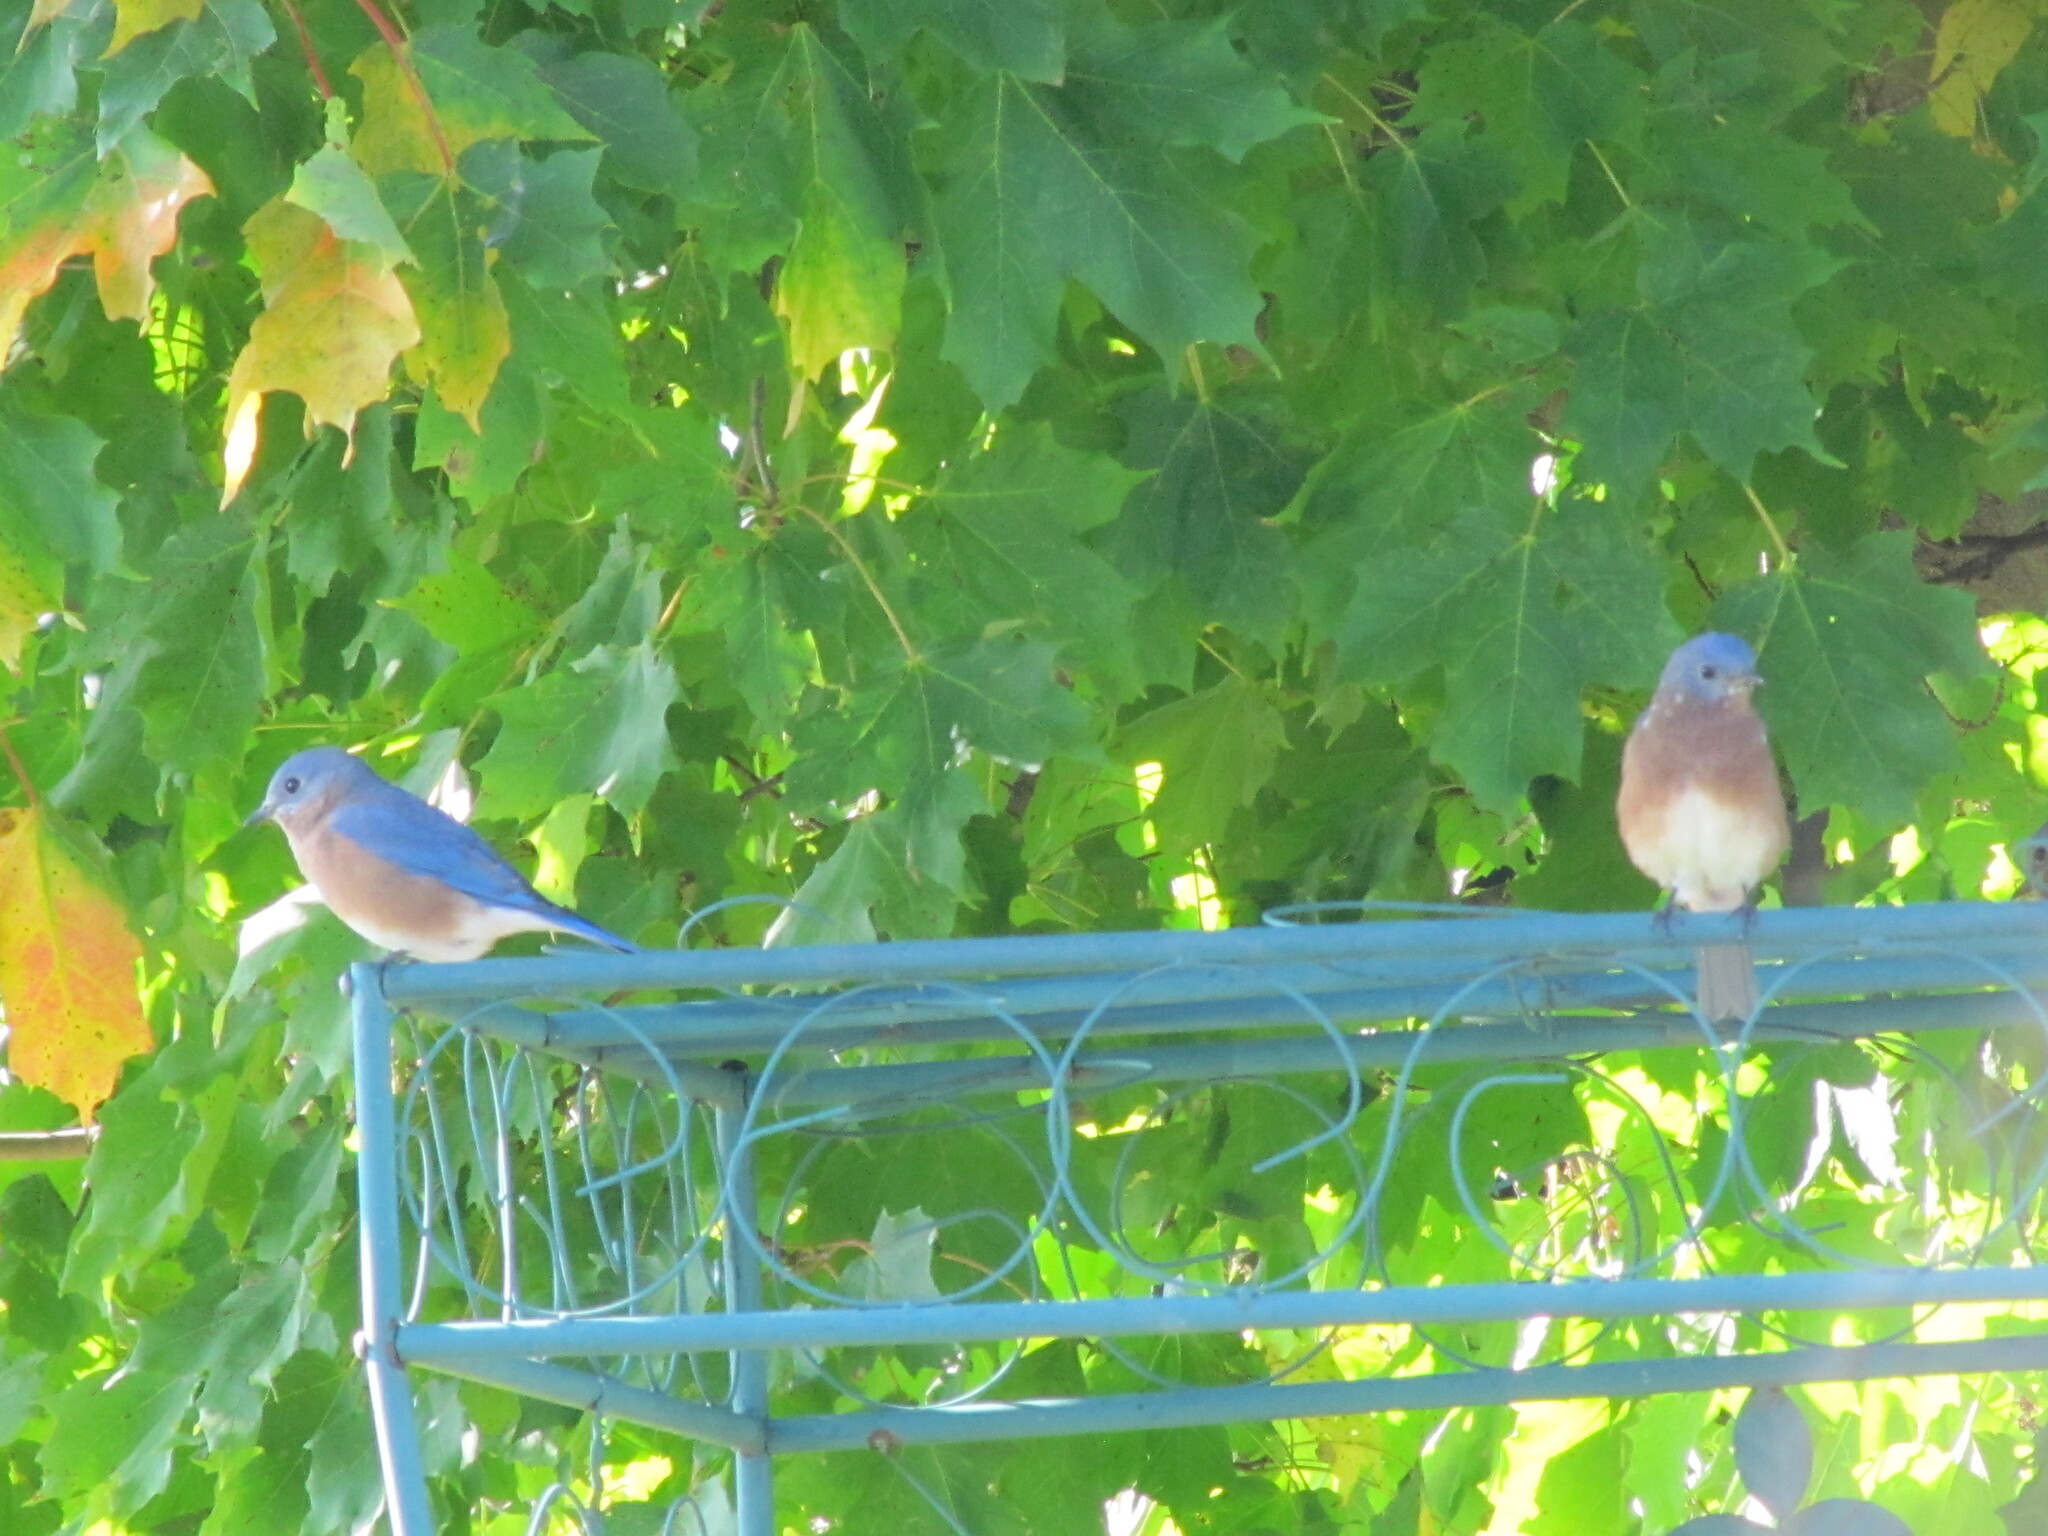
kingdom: Animalia
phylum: Chordata
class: Aves
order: Passeriformes
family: Turdidae
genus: Sialia
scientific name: Sialia sialis
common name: Eastern bluebird
